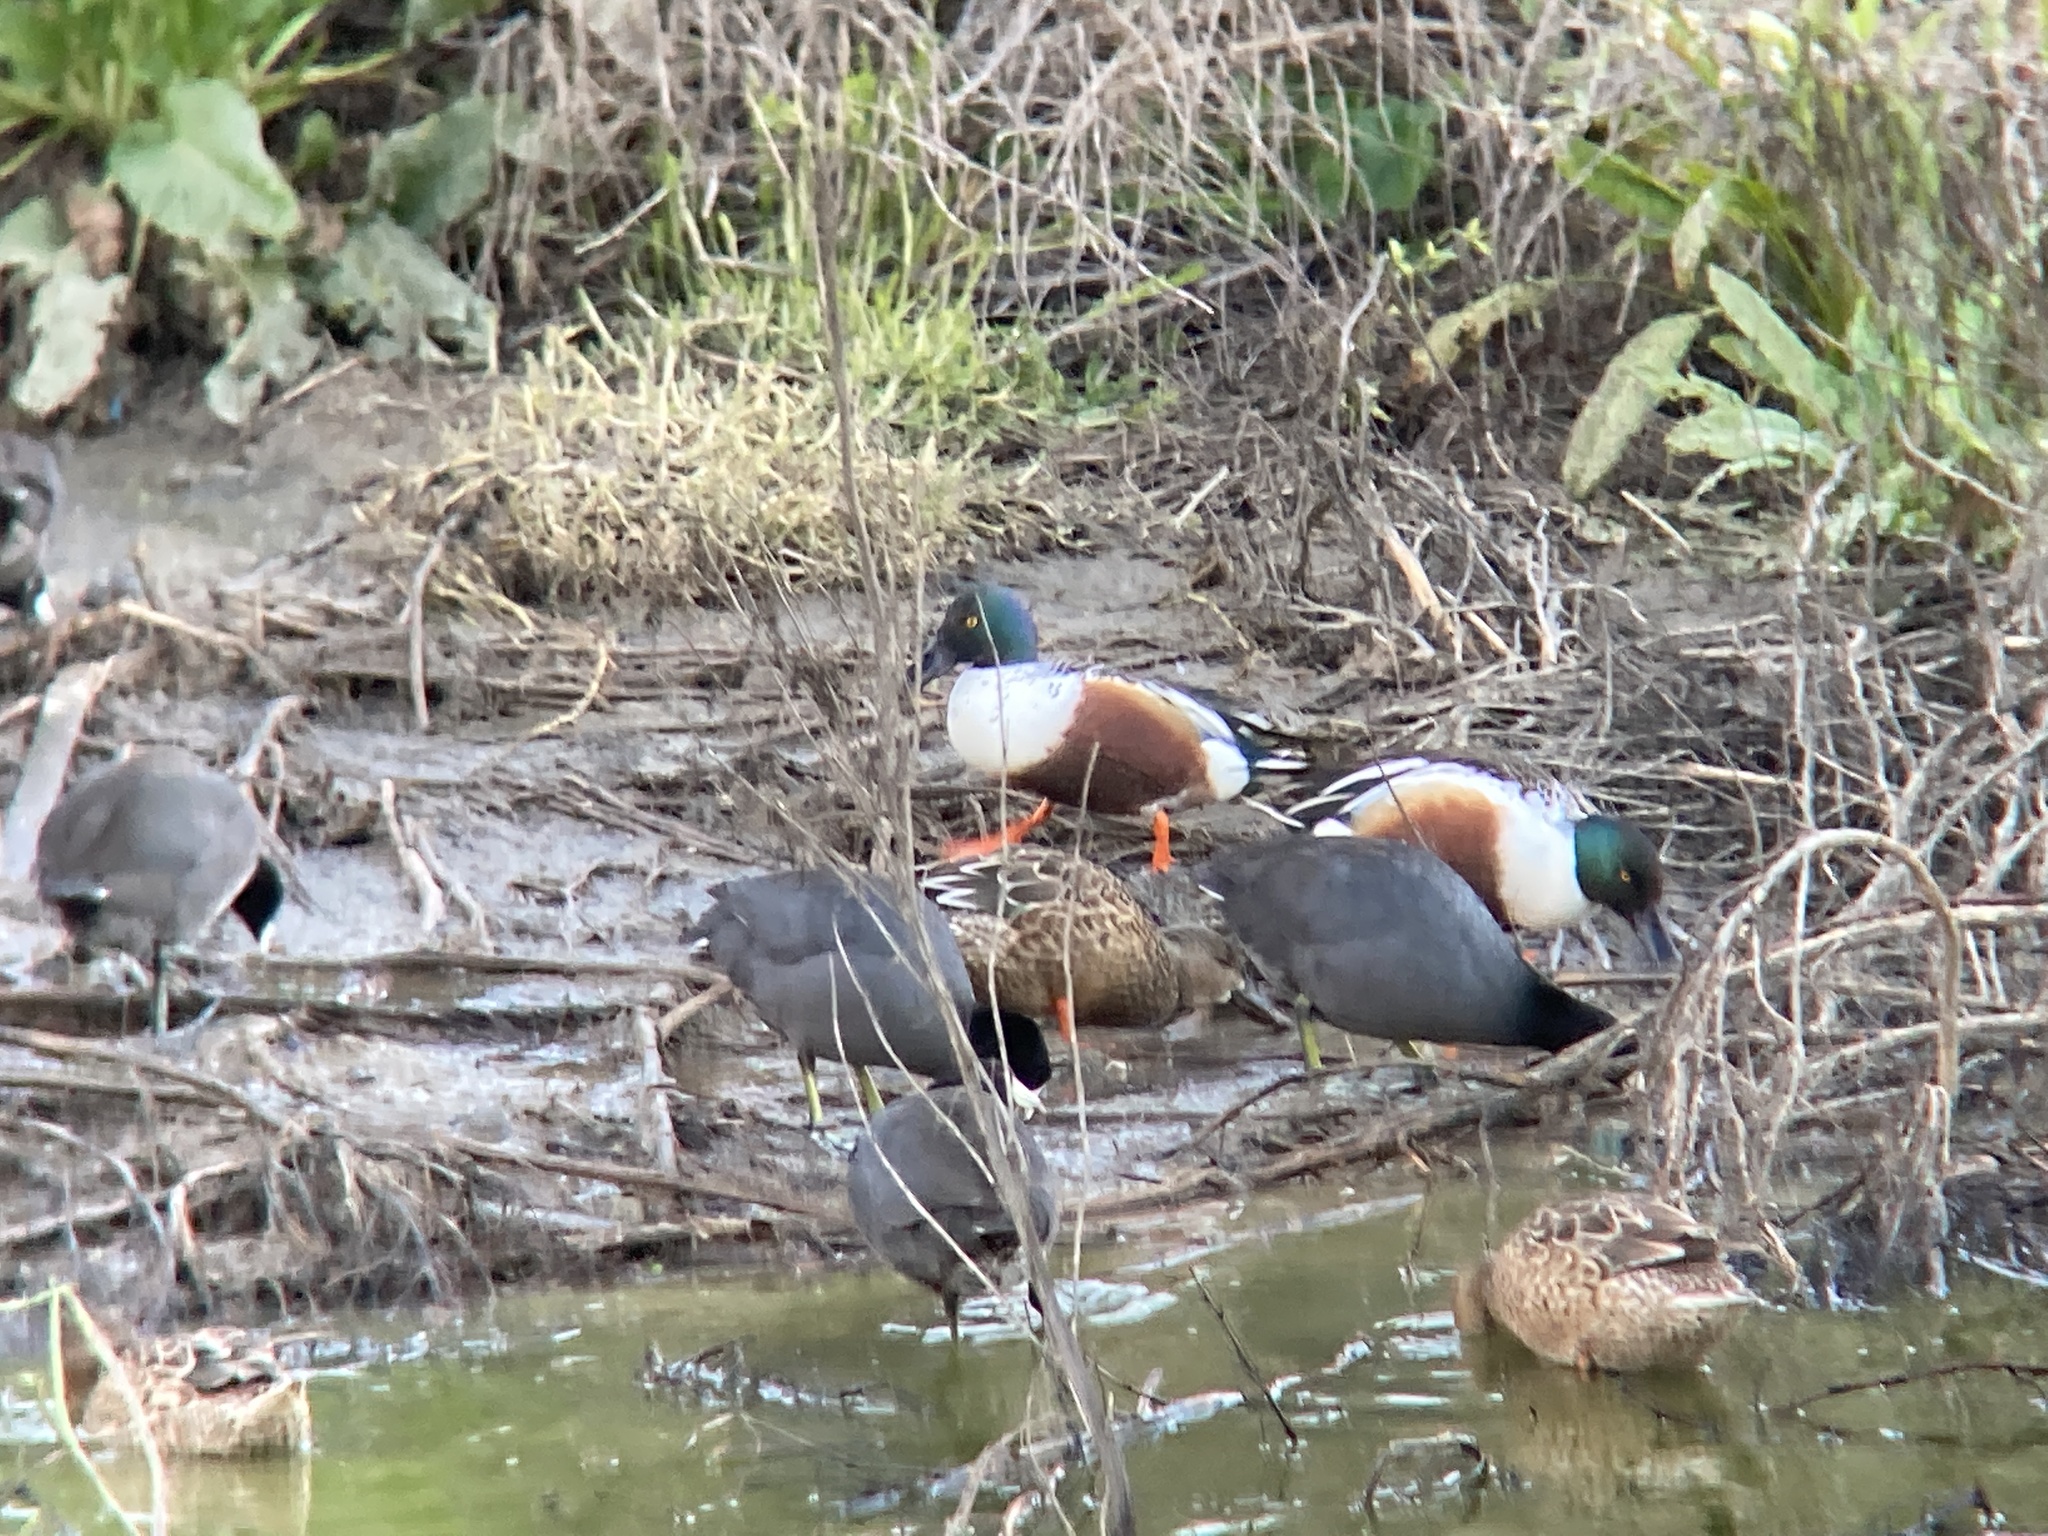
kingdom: Animalia
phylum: Chordata
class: Aves
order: Anseriformes
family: Anatidae
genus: Spatula
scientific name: Spatula clypeata
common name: Northern shoveler
